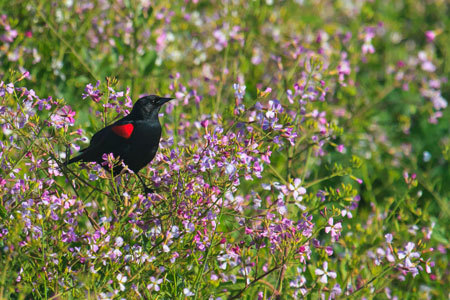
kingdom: Animalia
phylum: Chordata
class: Aves
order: Passeriformes
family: Icteridae
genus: Agelaius
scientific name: Agelaius phoeniceus
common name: Red-winged blackbird
